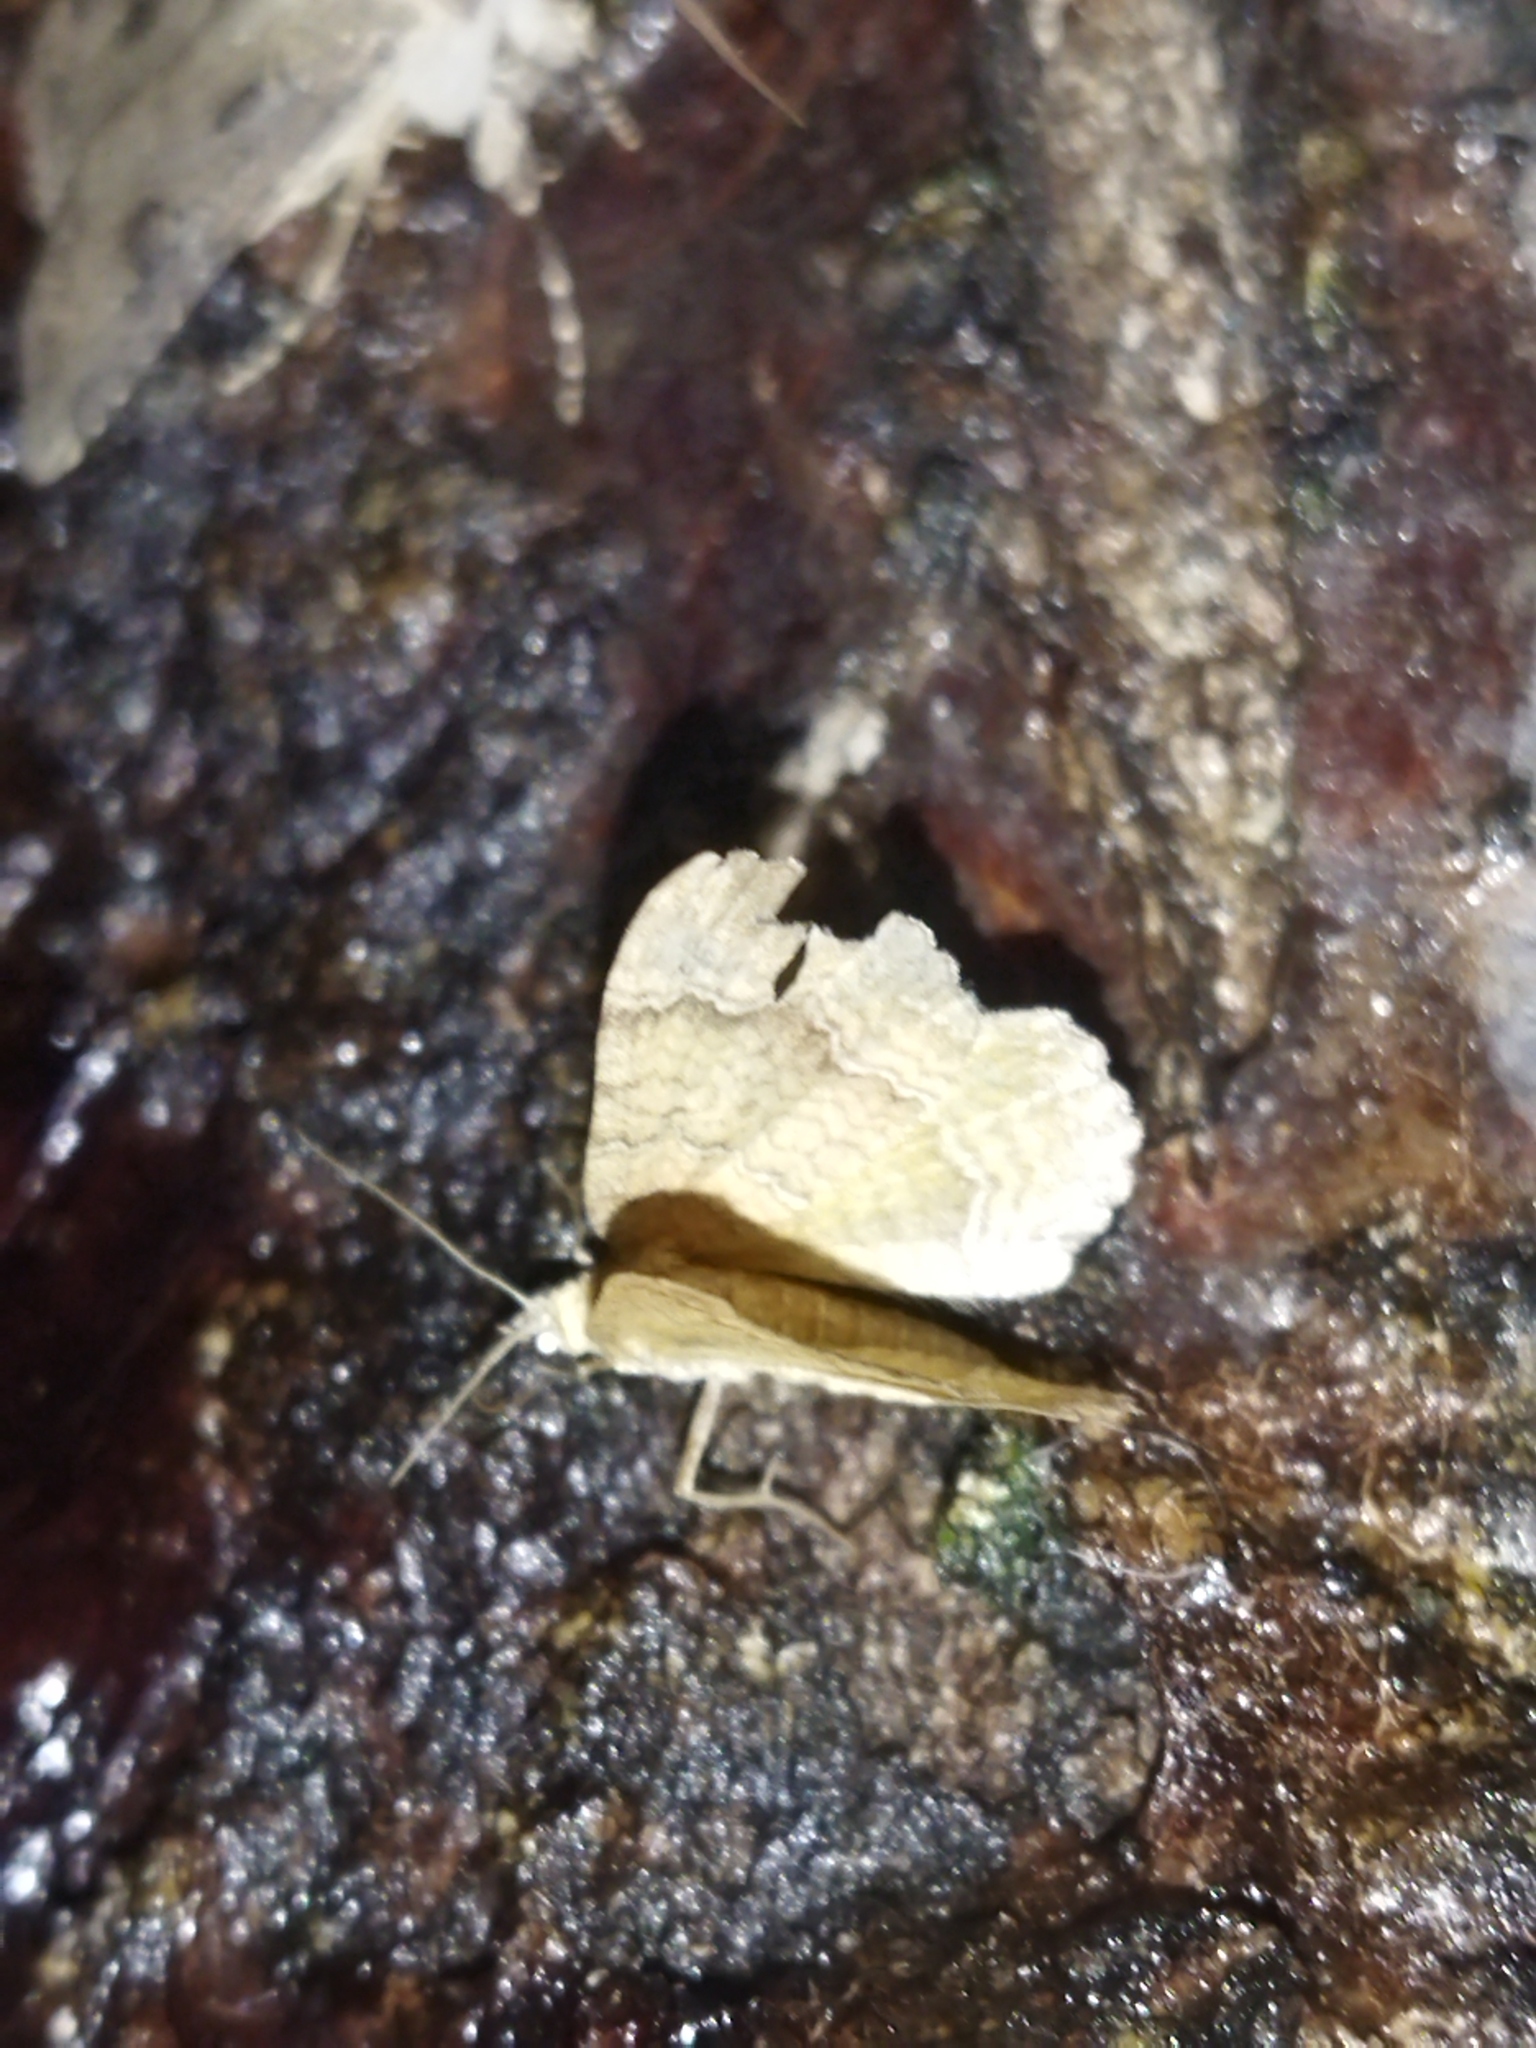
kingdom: Animalia
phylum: Arthropoda
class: Insecta
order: Lepidoptera
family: Geometridae
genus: Camptogramma
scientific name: Camptogramma bilineata
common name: Yellow shell
